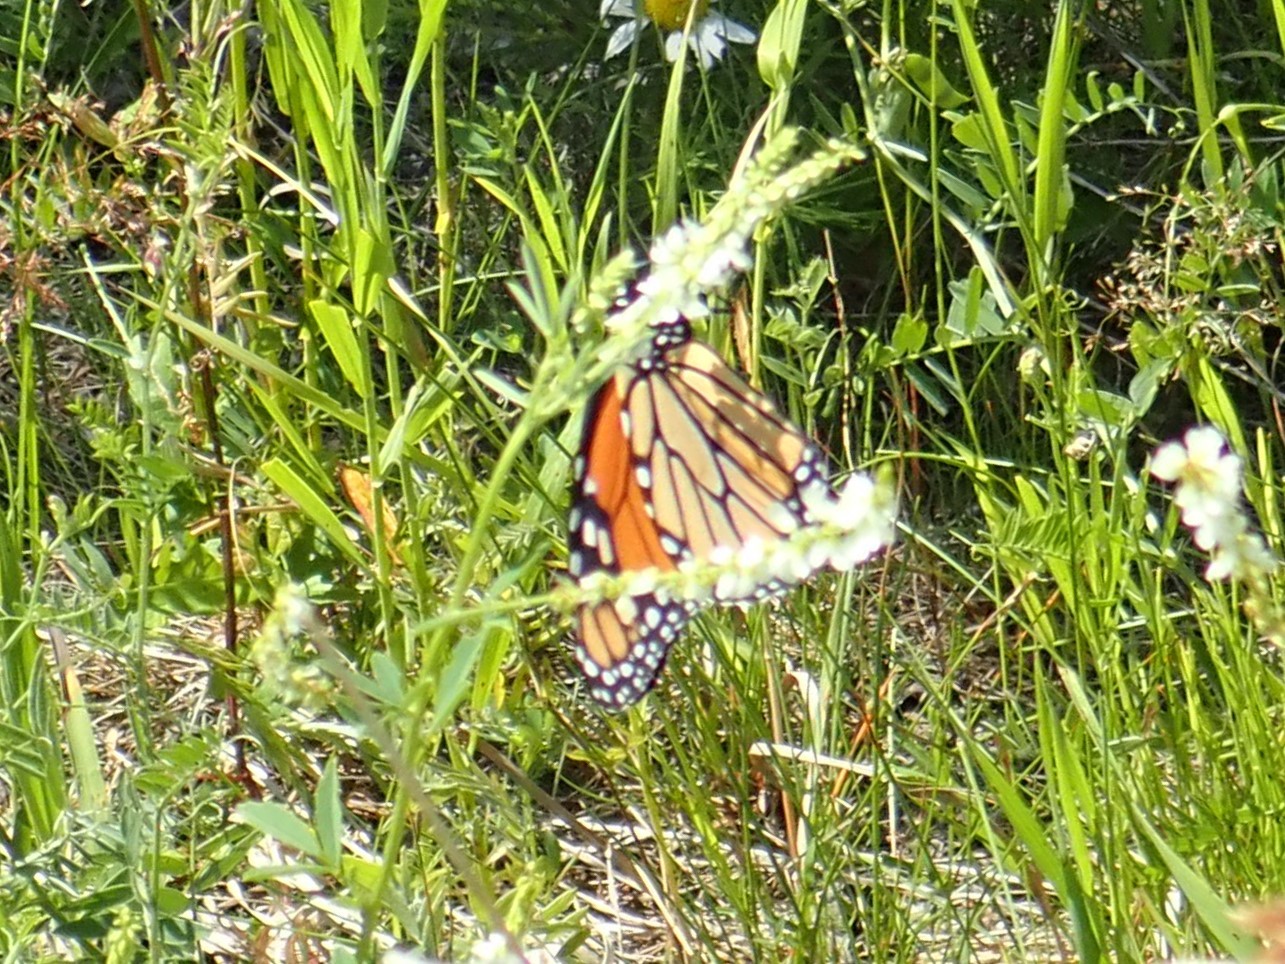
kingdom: Animalia
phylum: Arthropoda
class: Insecta
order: Lepidoptera
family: Nymphalidae
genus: Danaus
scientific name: Danaus plexippus
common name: Monarch
